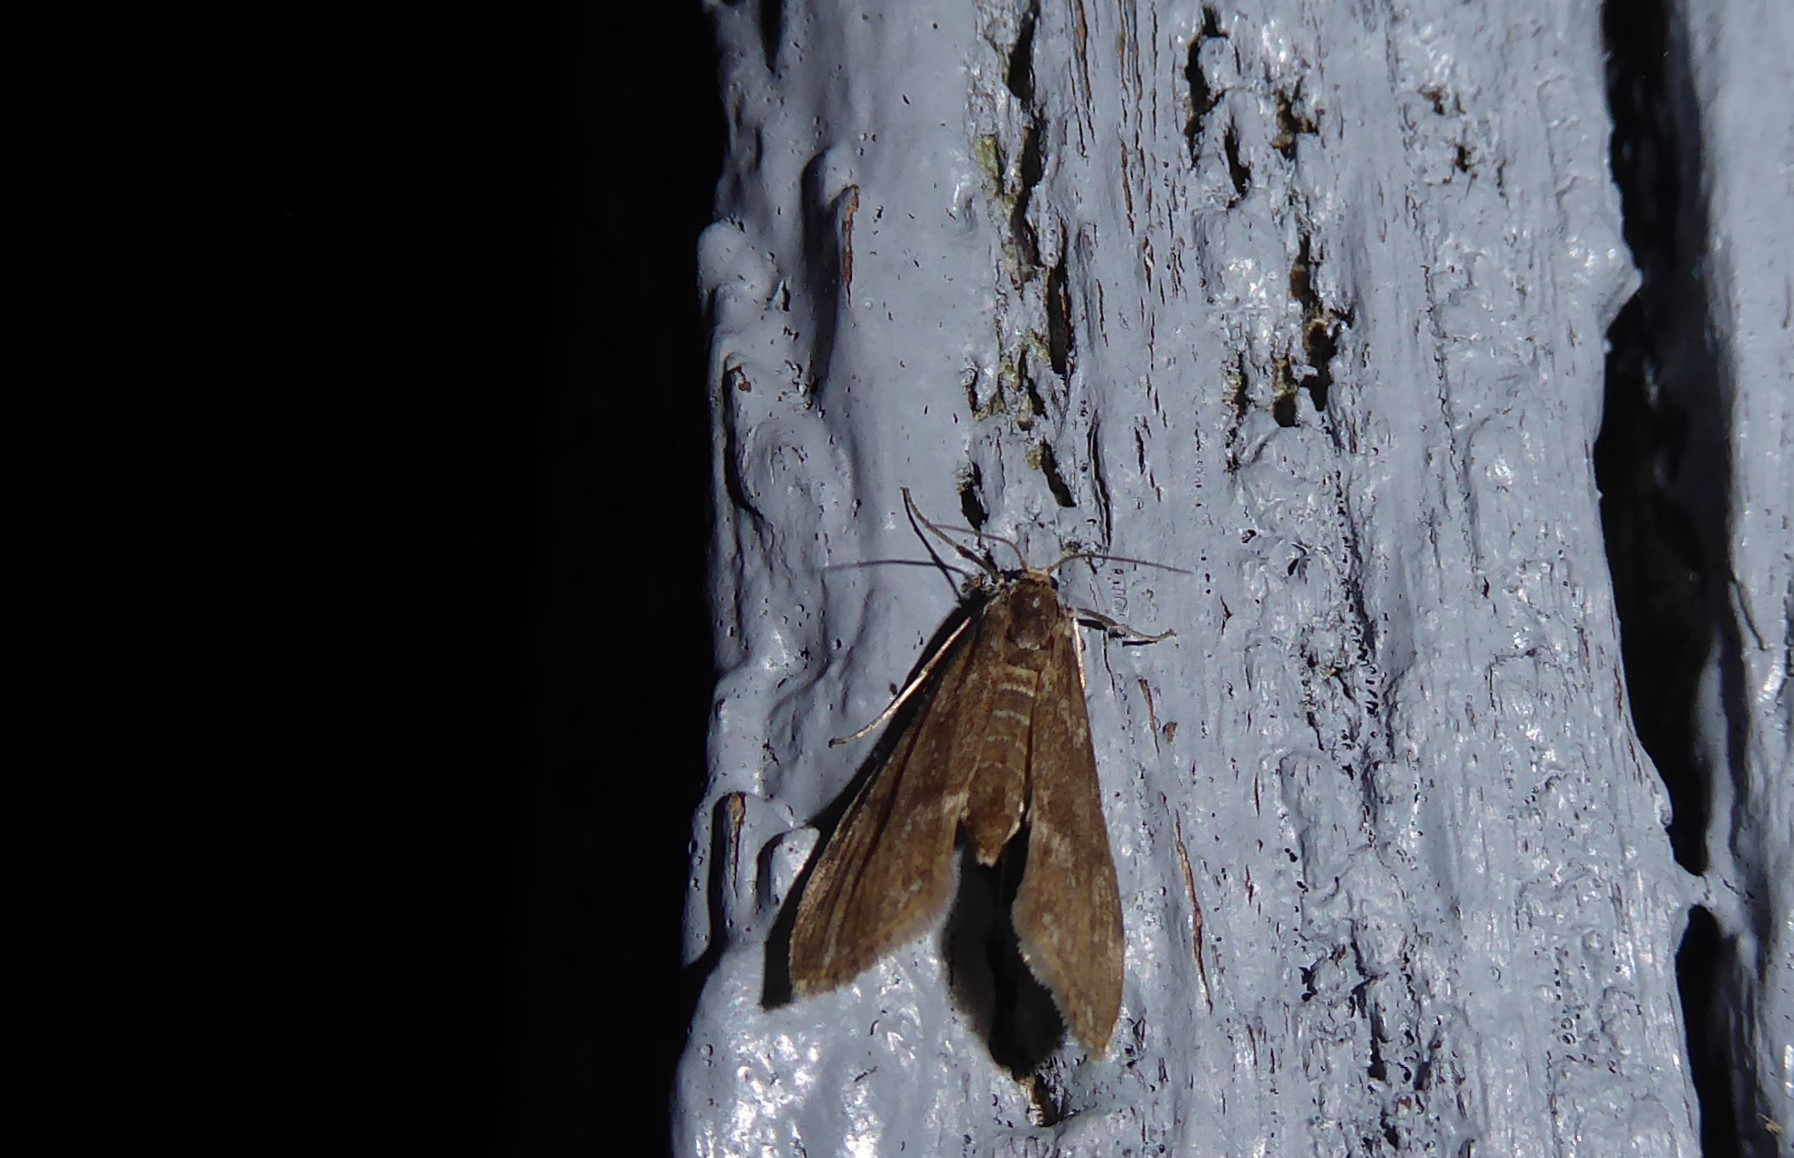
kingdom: Animalia
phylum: Arthropoda
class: Insecta
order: Lepidoptera
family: Crambidae
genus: Hygraula
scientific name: Hygraula nitens
